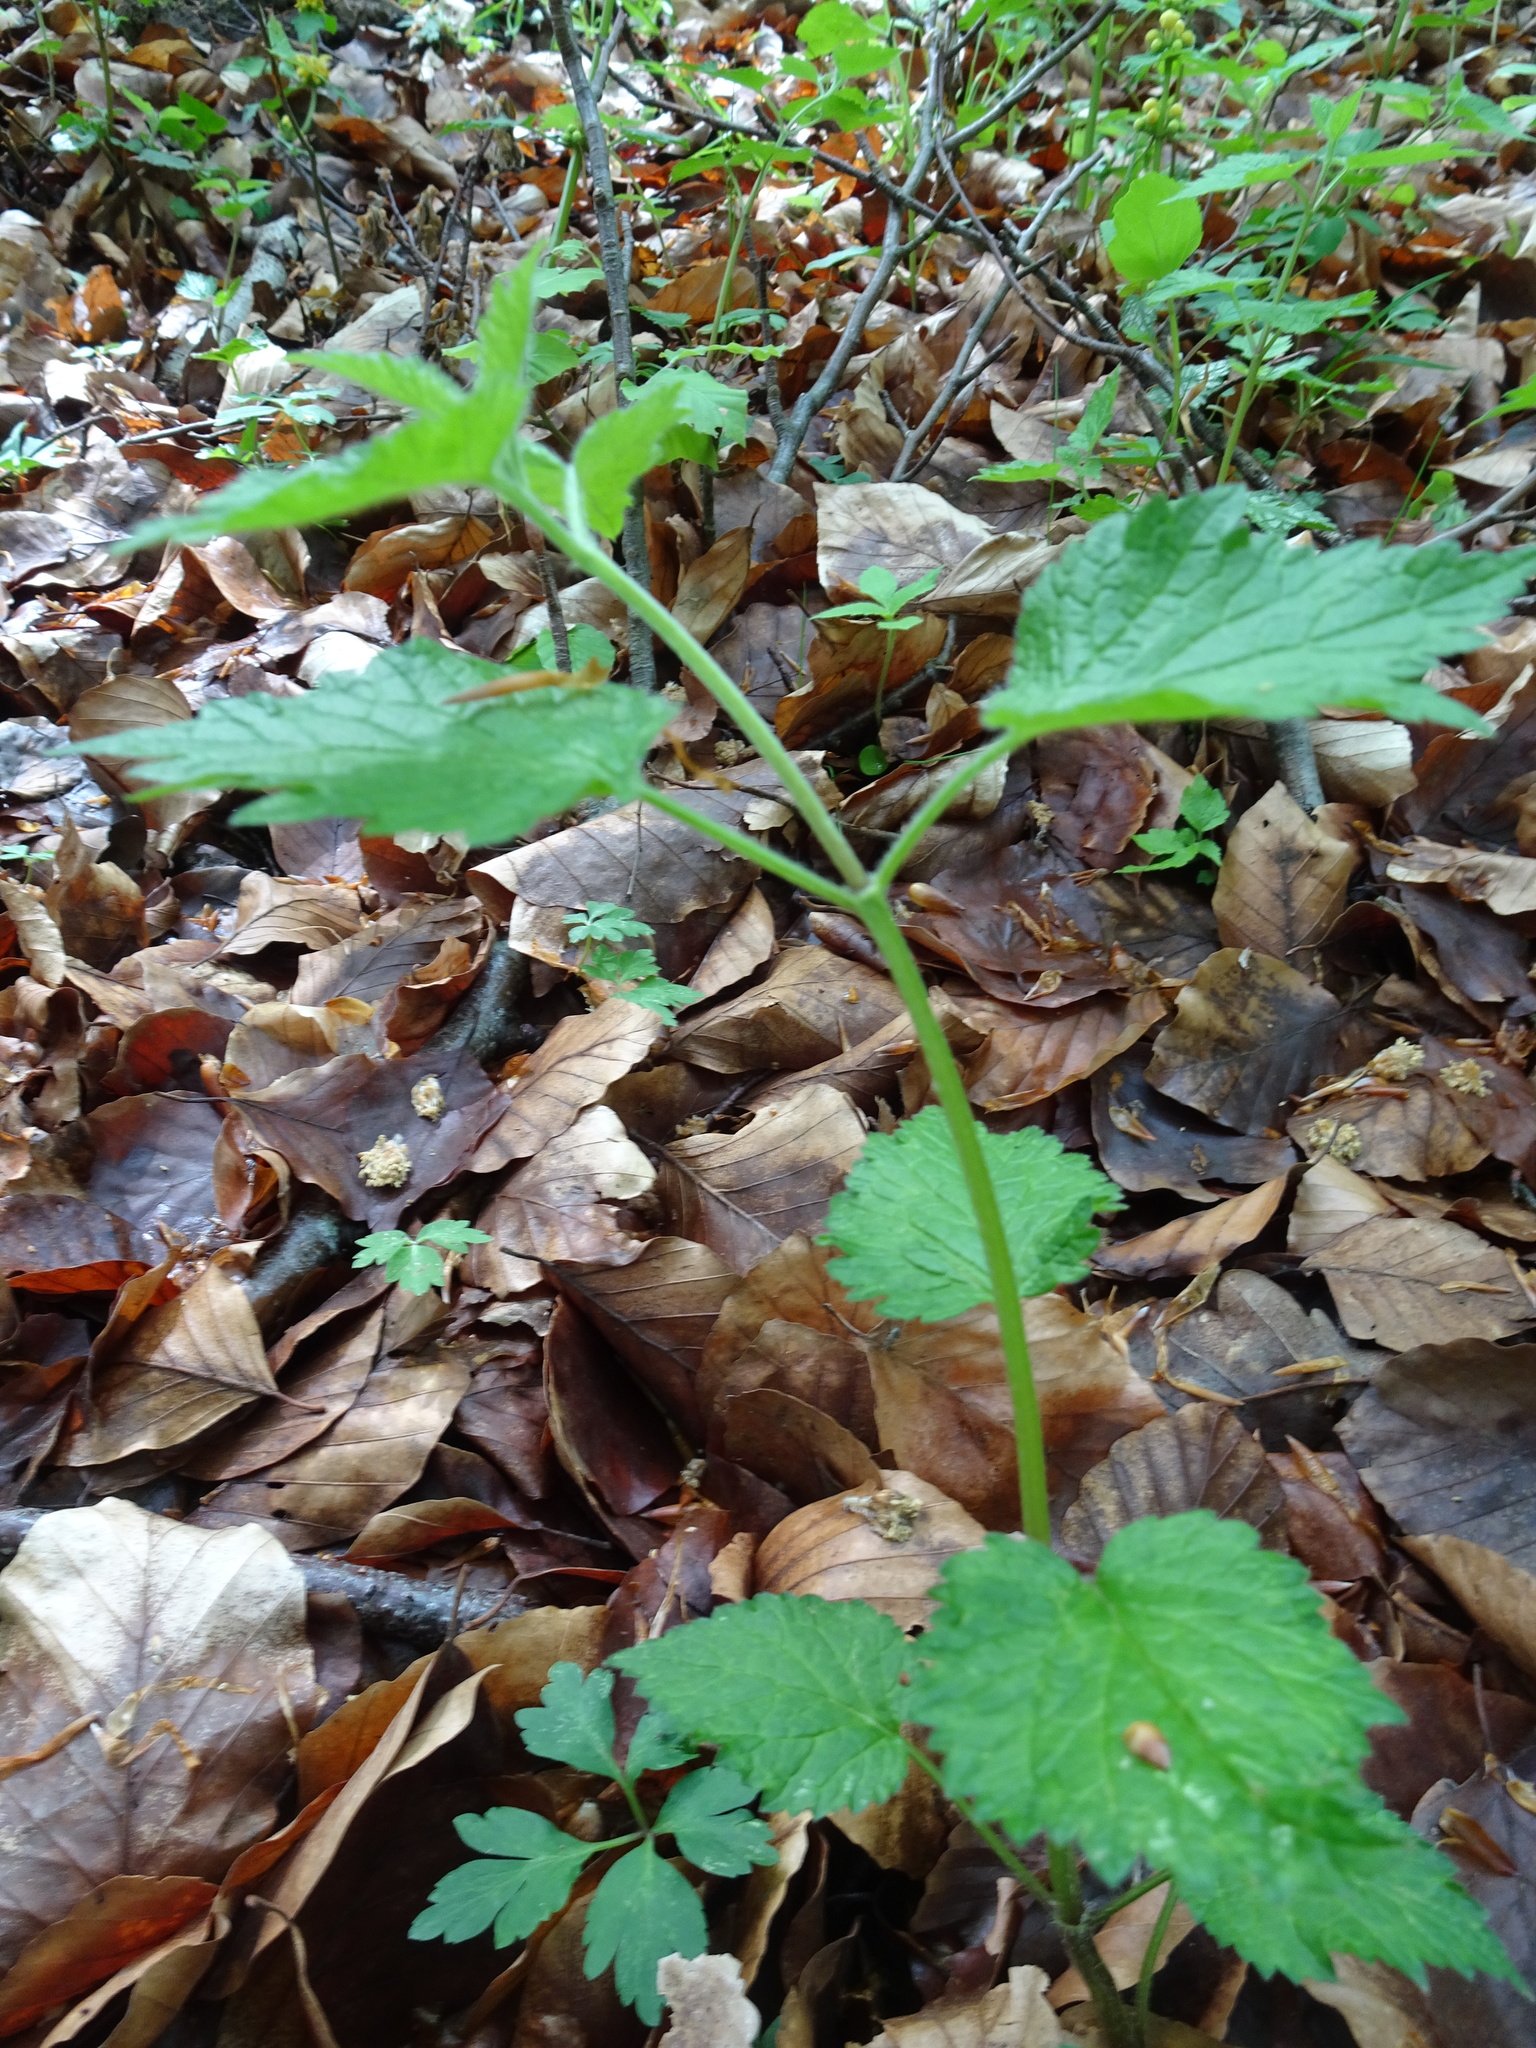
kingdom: Plantae
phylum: Tracheophyta
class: Magnoliopsida
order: Lamiales
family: Lamiaceae
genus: Stachys
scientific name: Stachys sylvatica
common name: Hedge woundwort
